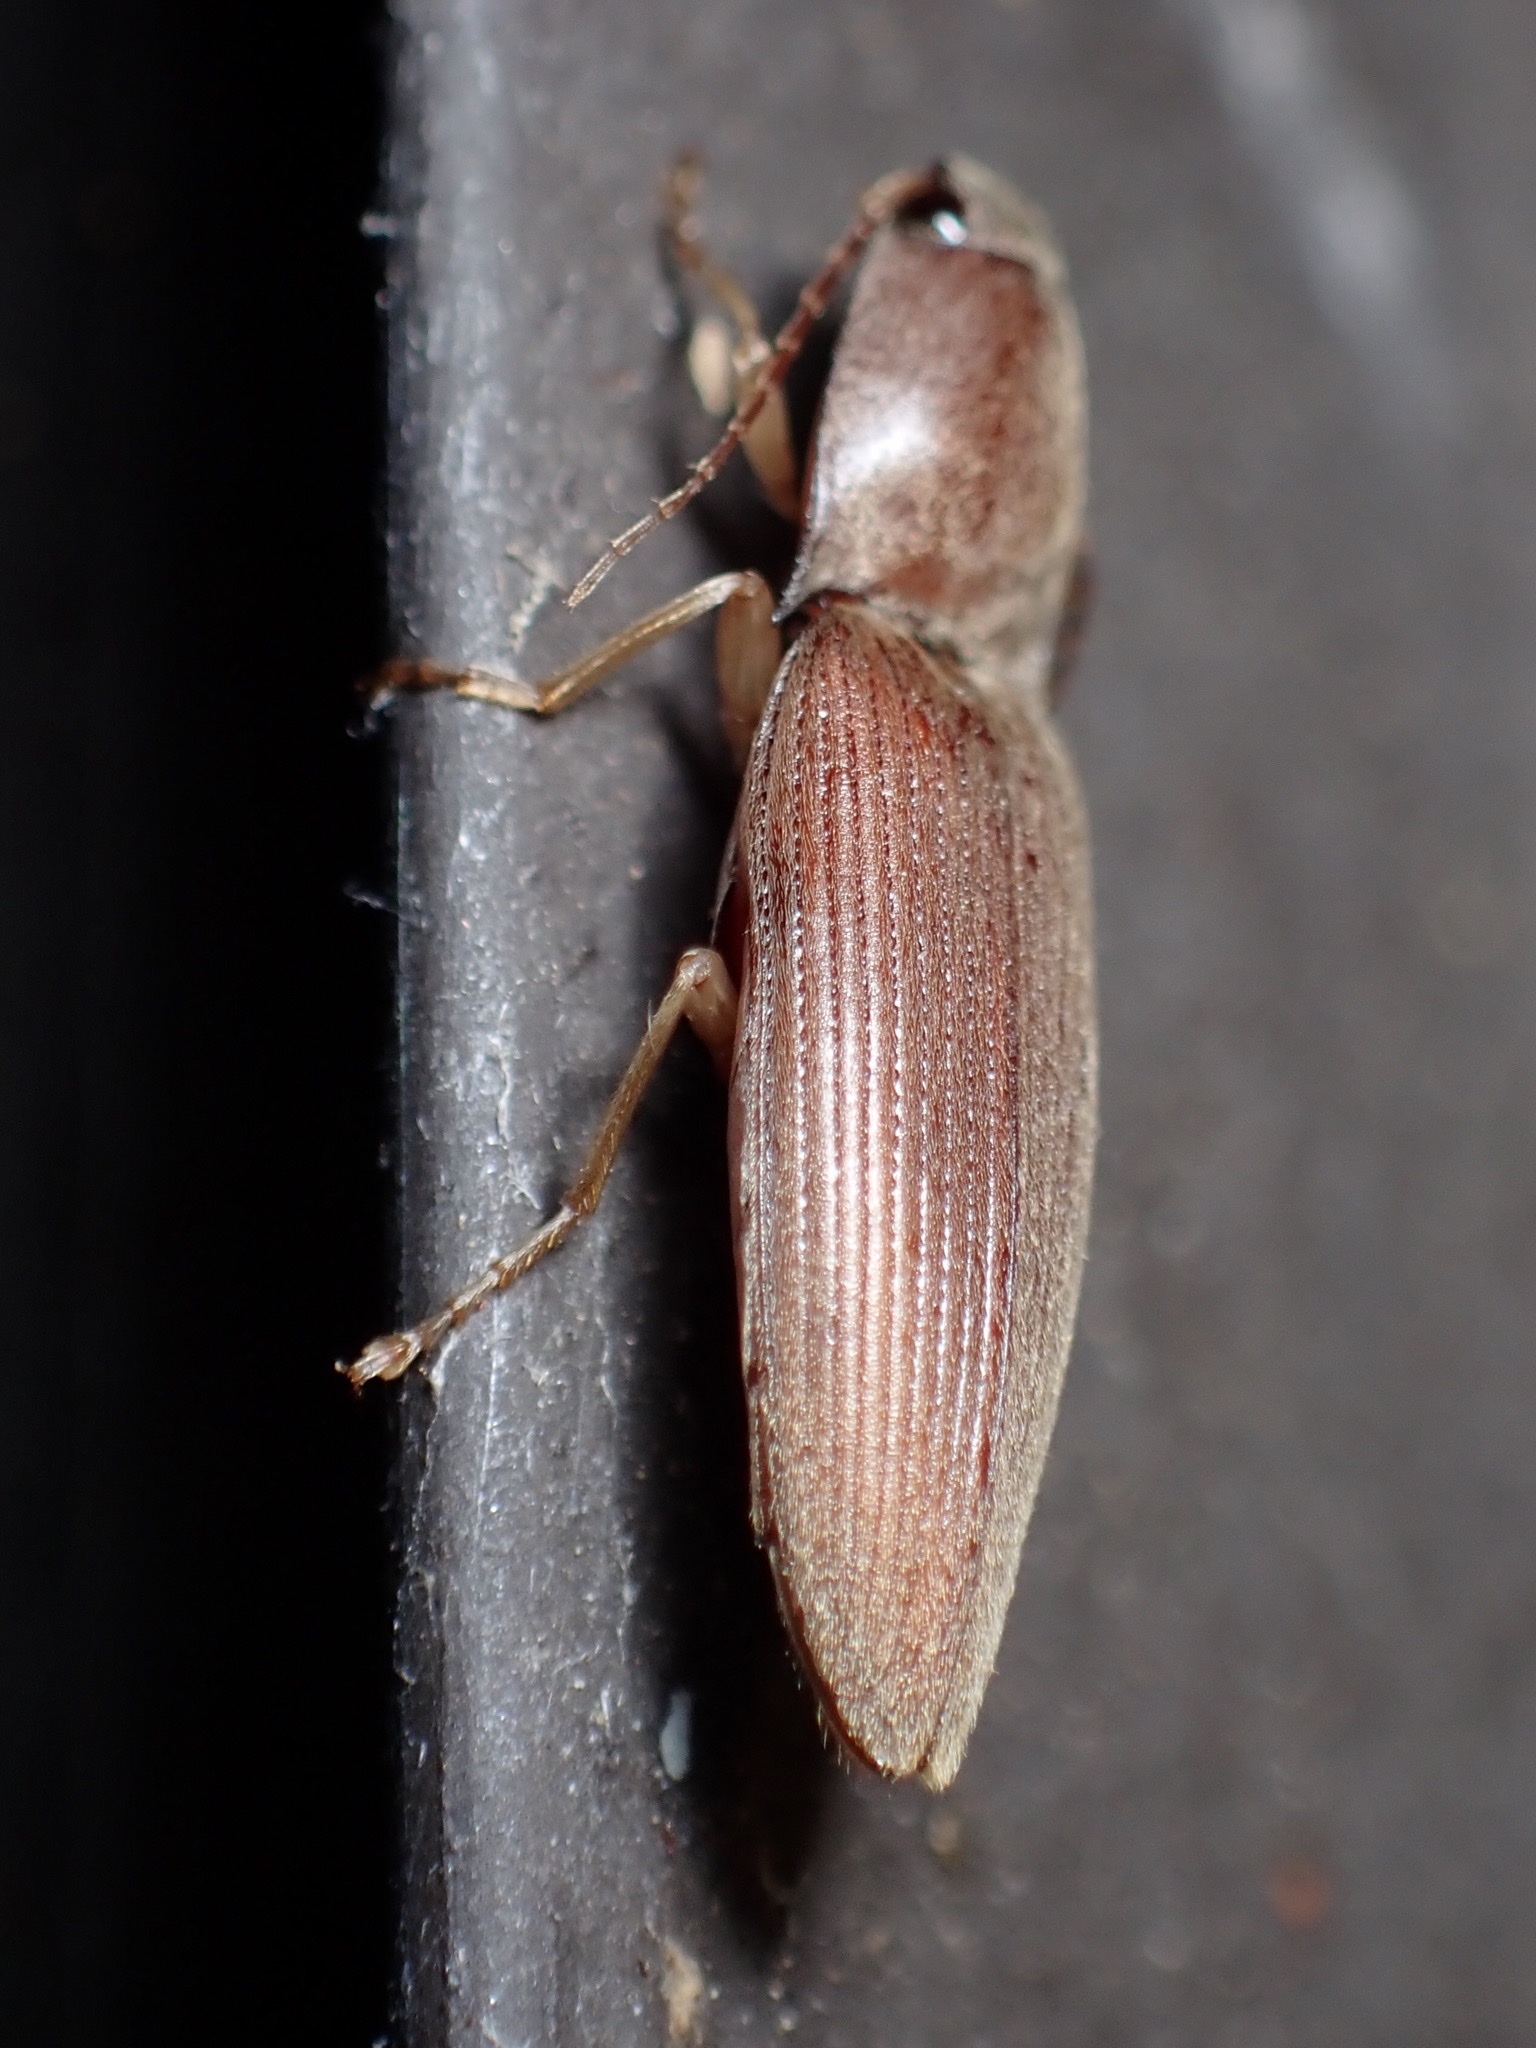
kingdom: Animalia
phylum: Arthropoda
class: Insecta
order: Coleoptera
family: Elateridae
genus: Monocrepidius
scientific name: Monocrepidius lividus
